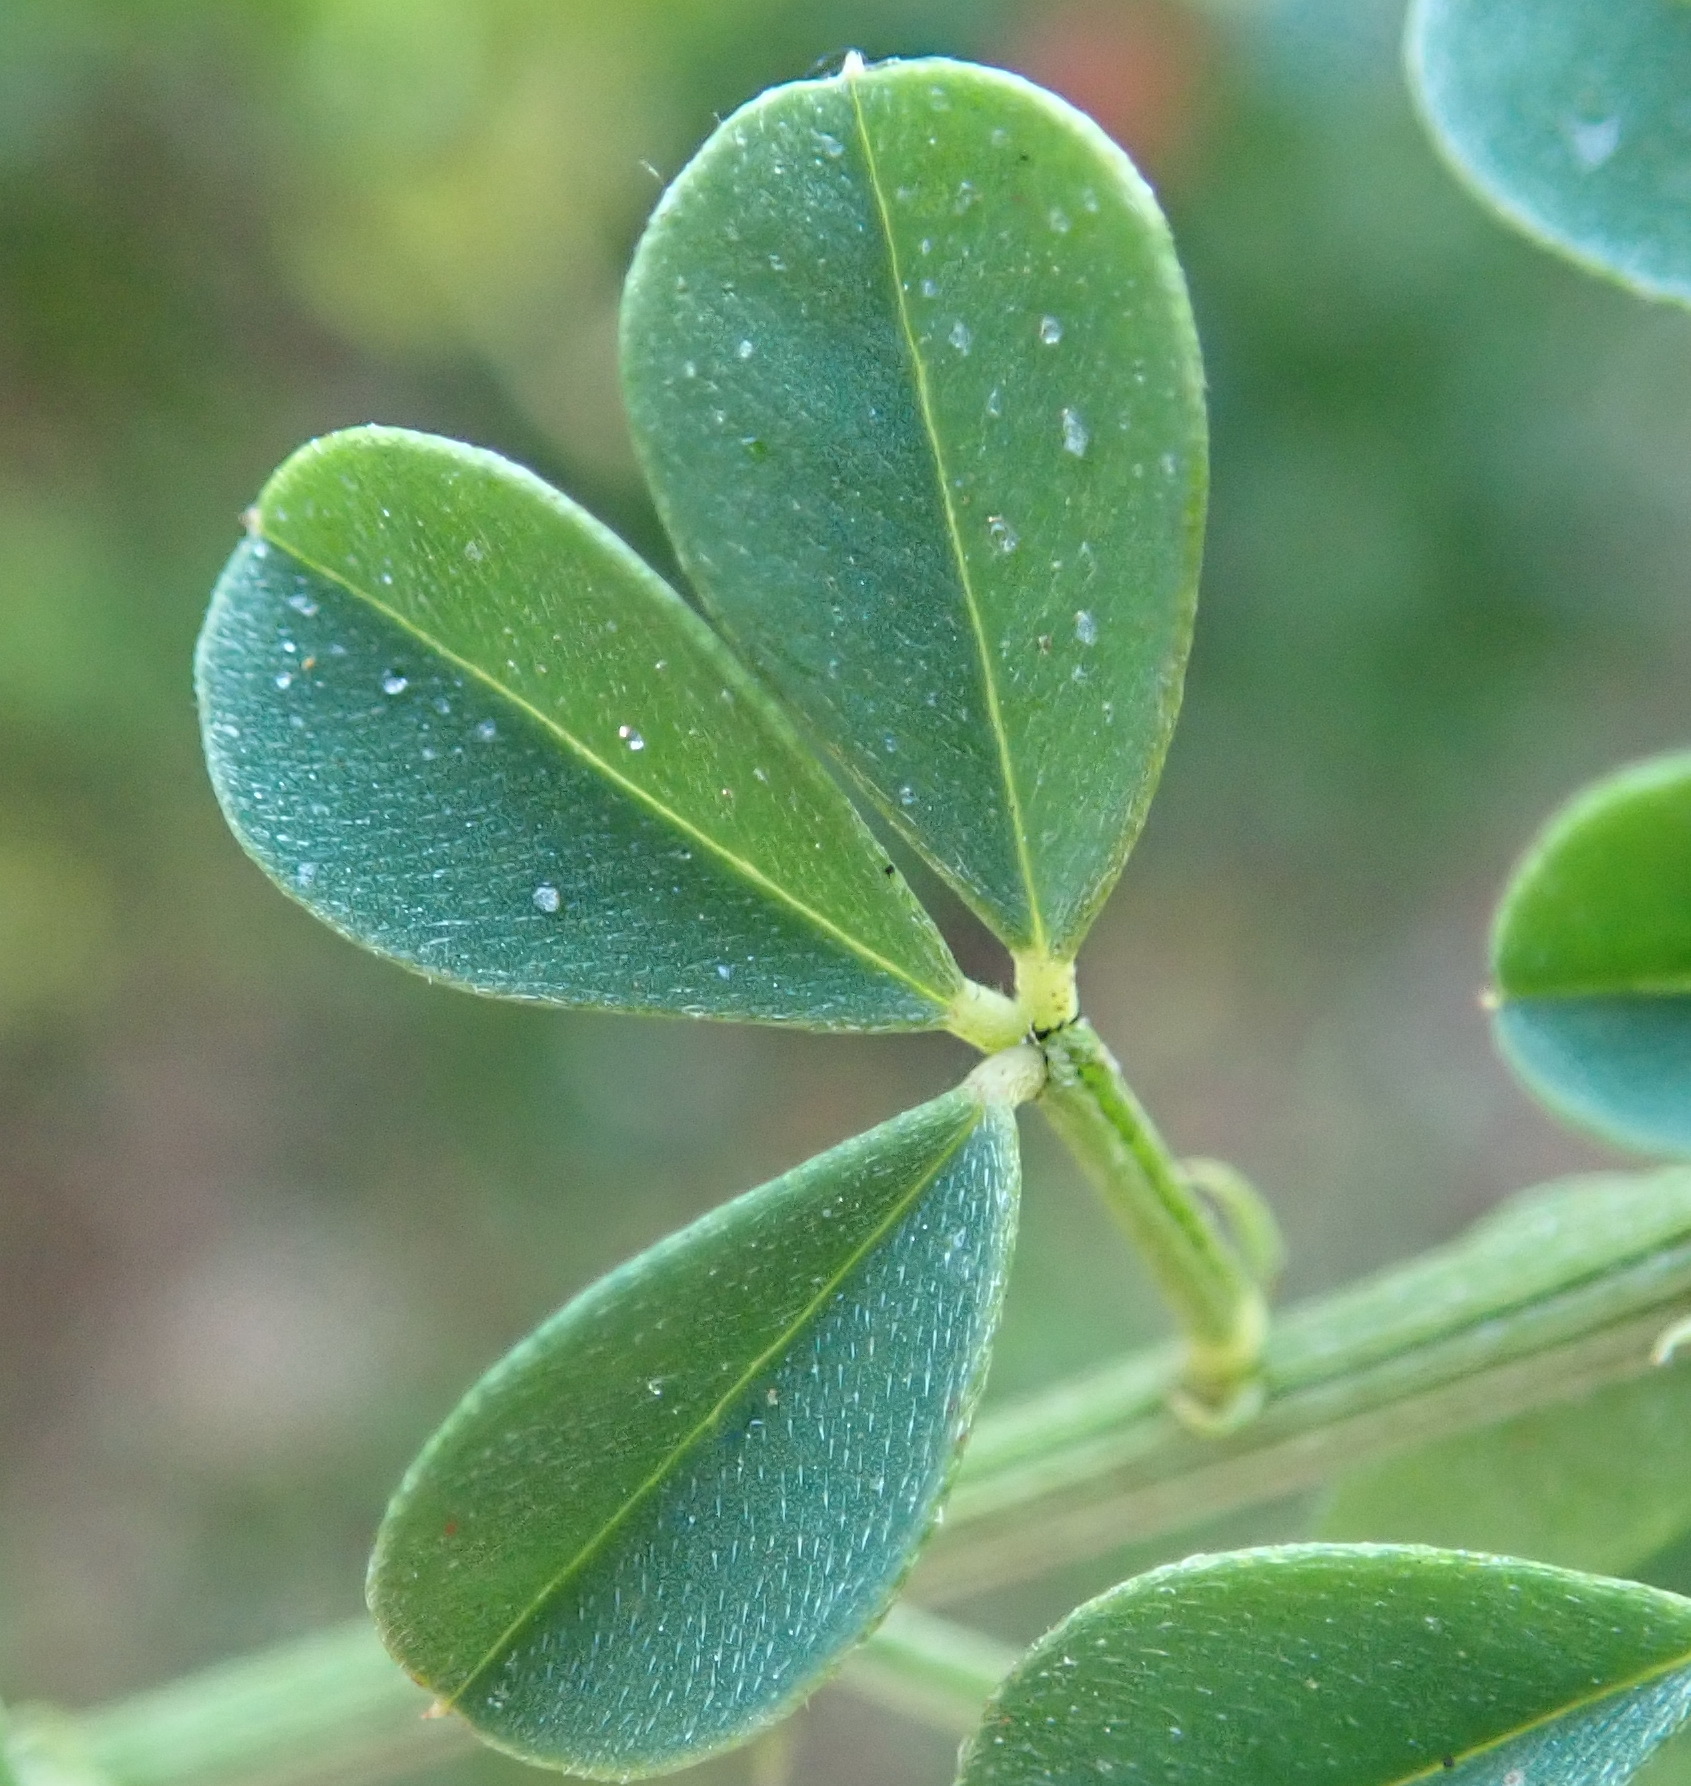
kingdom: Plantae
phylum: Tracheophyta
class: Magnoliopsida
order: Fabales
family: Fabaceae
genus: Indigofera
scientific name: Indigofera porrecta
